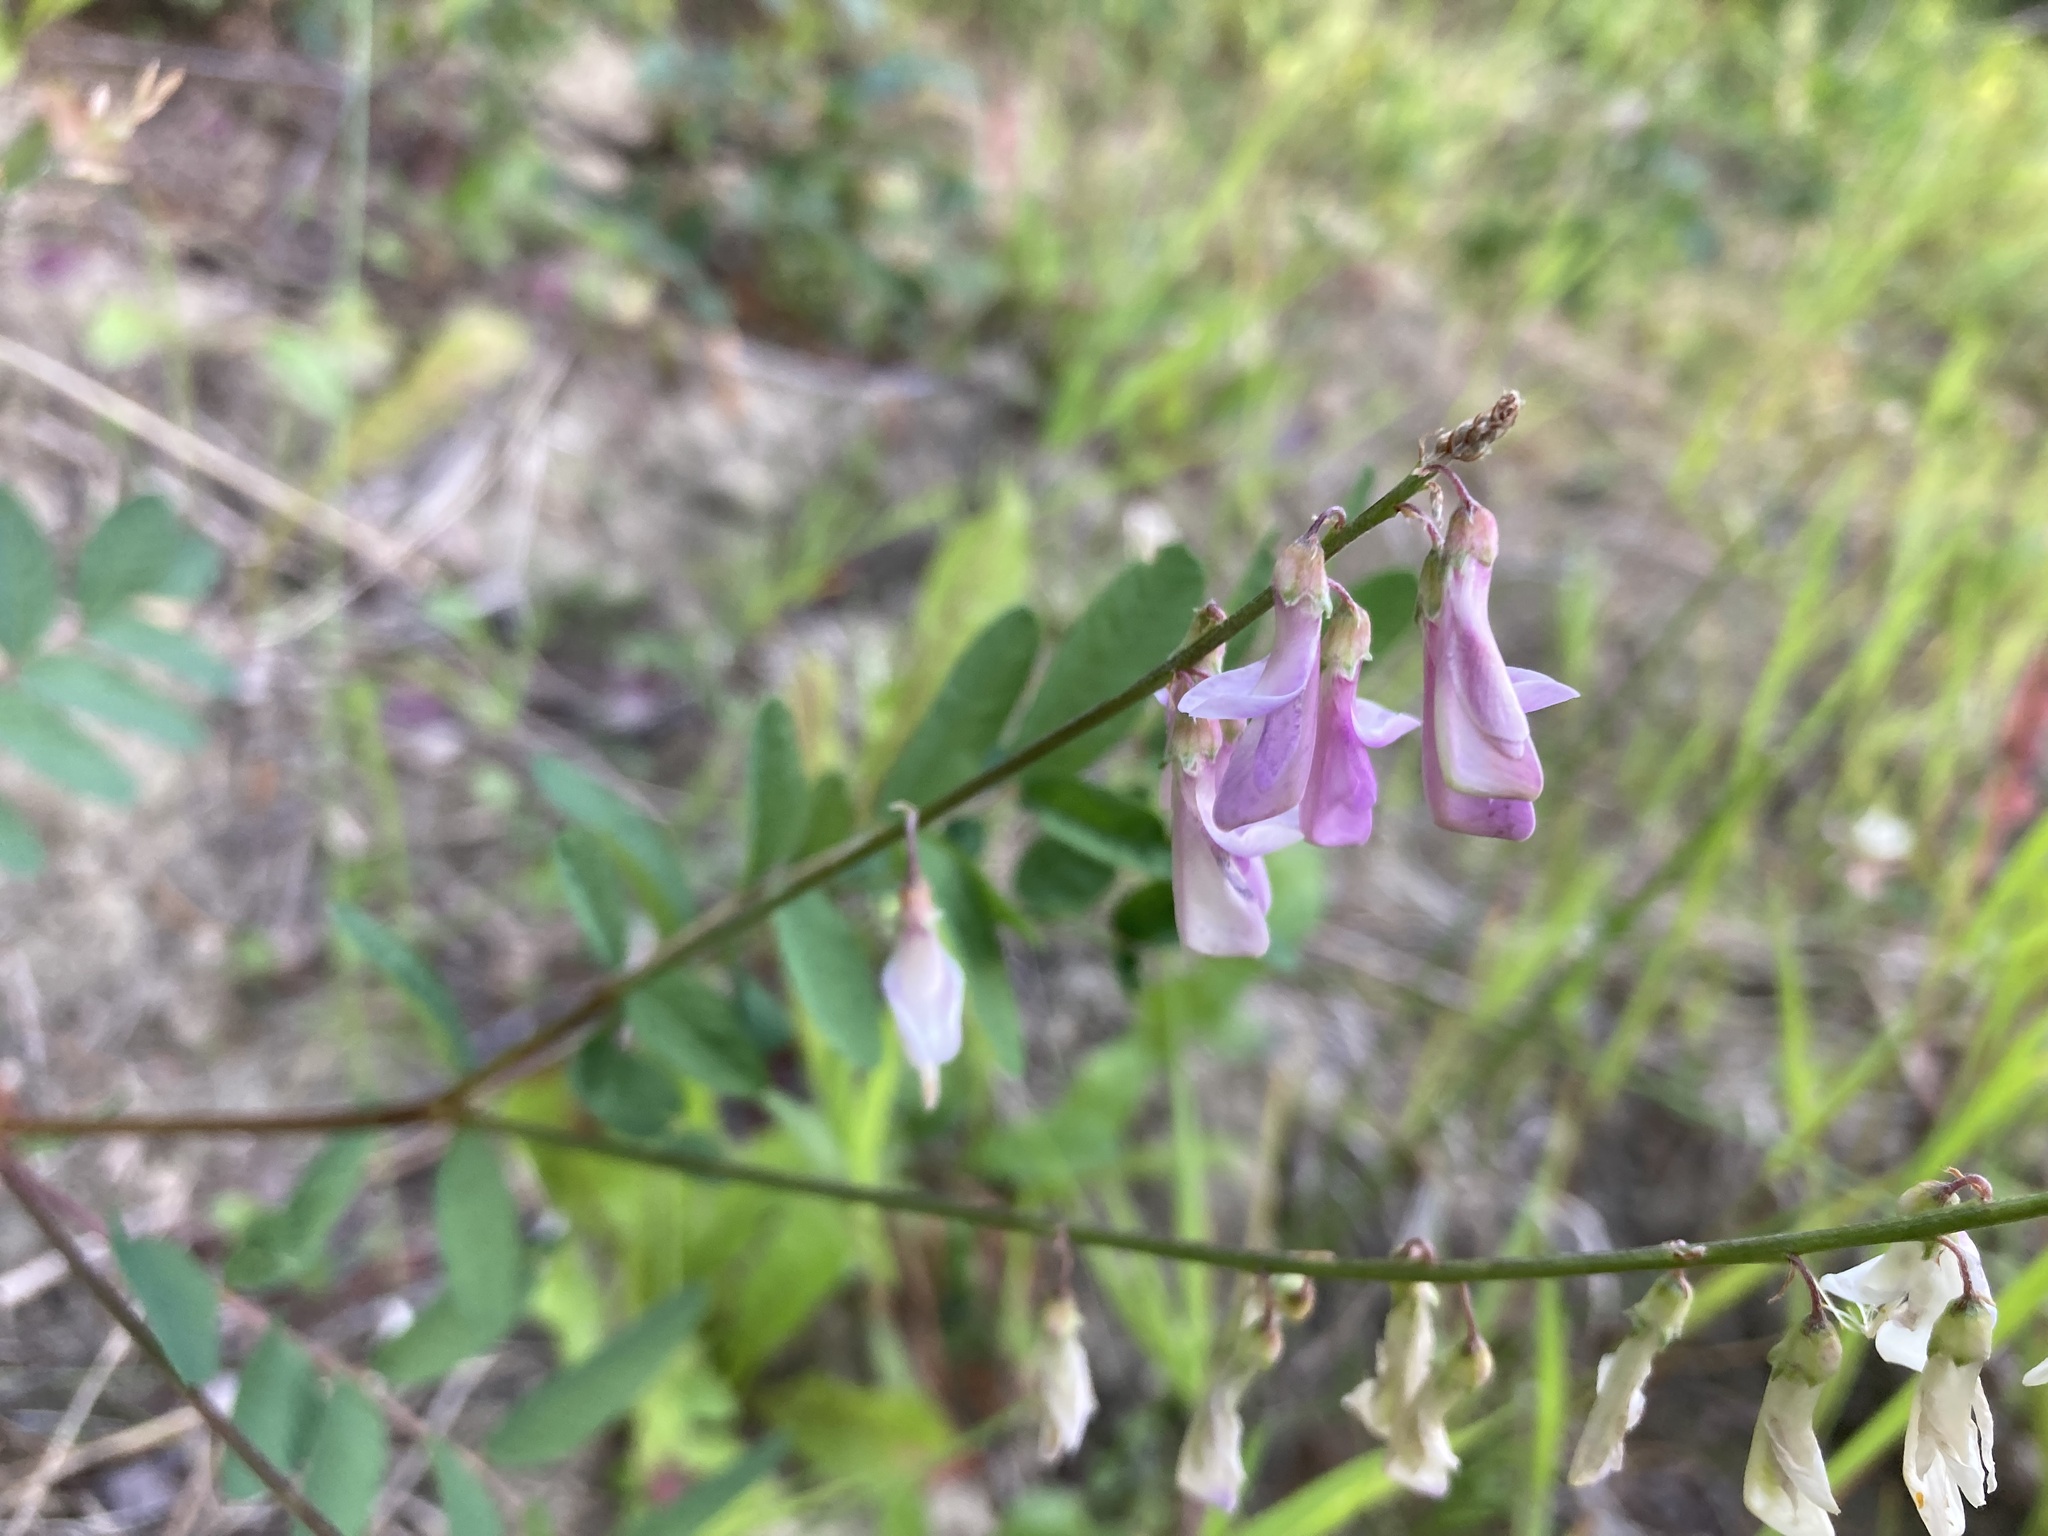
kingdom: Plantae
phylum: Tracheophyta
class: Magnoliopsida
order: Fabales
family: Fabaceae
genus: Hedysarum
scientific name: Hedysarum alpinum
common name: Alpine sweet-vetch
